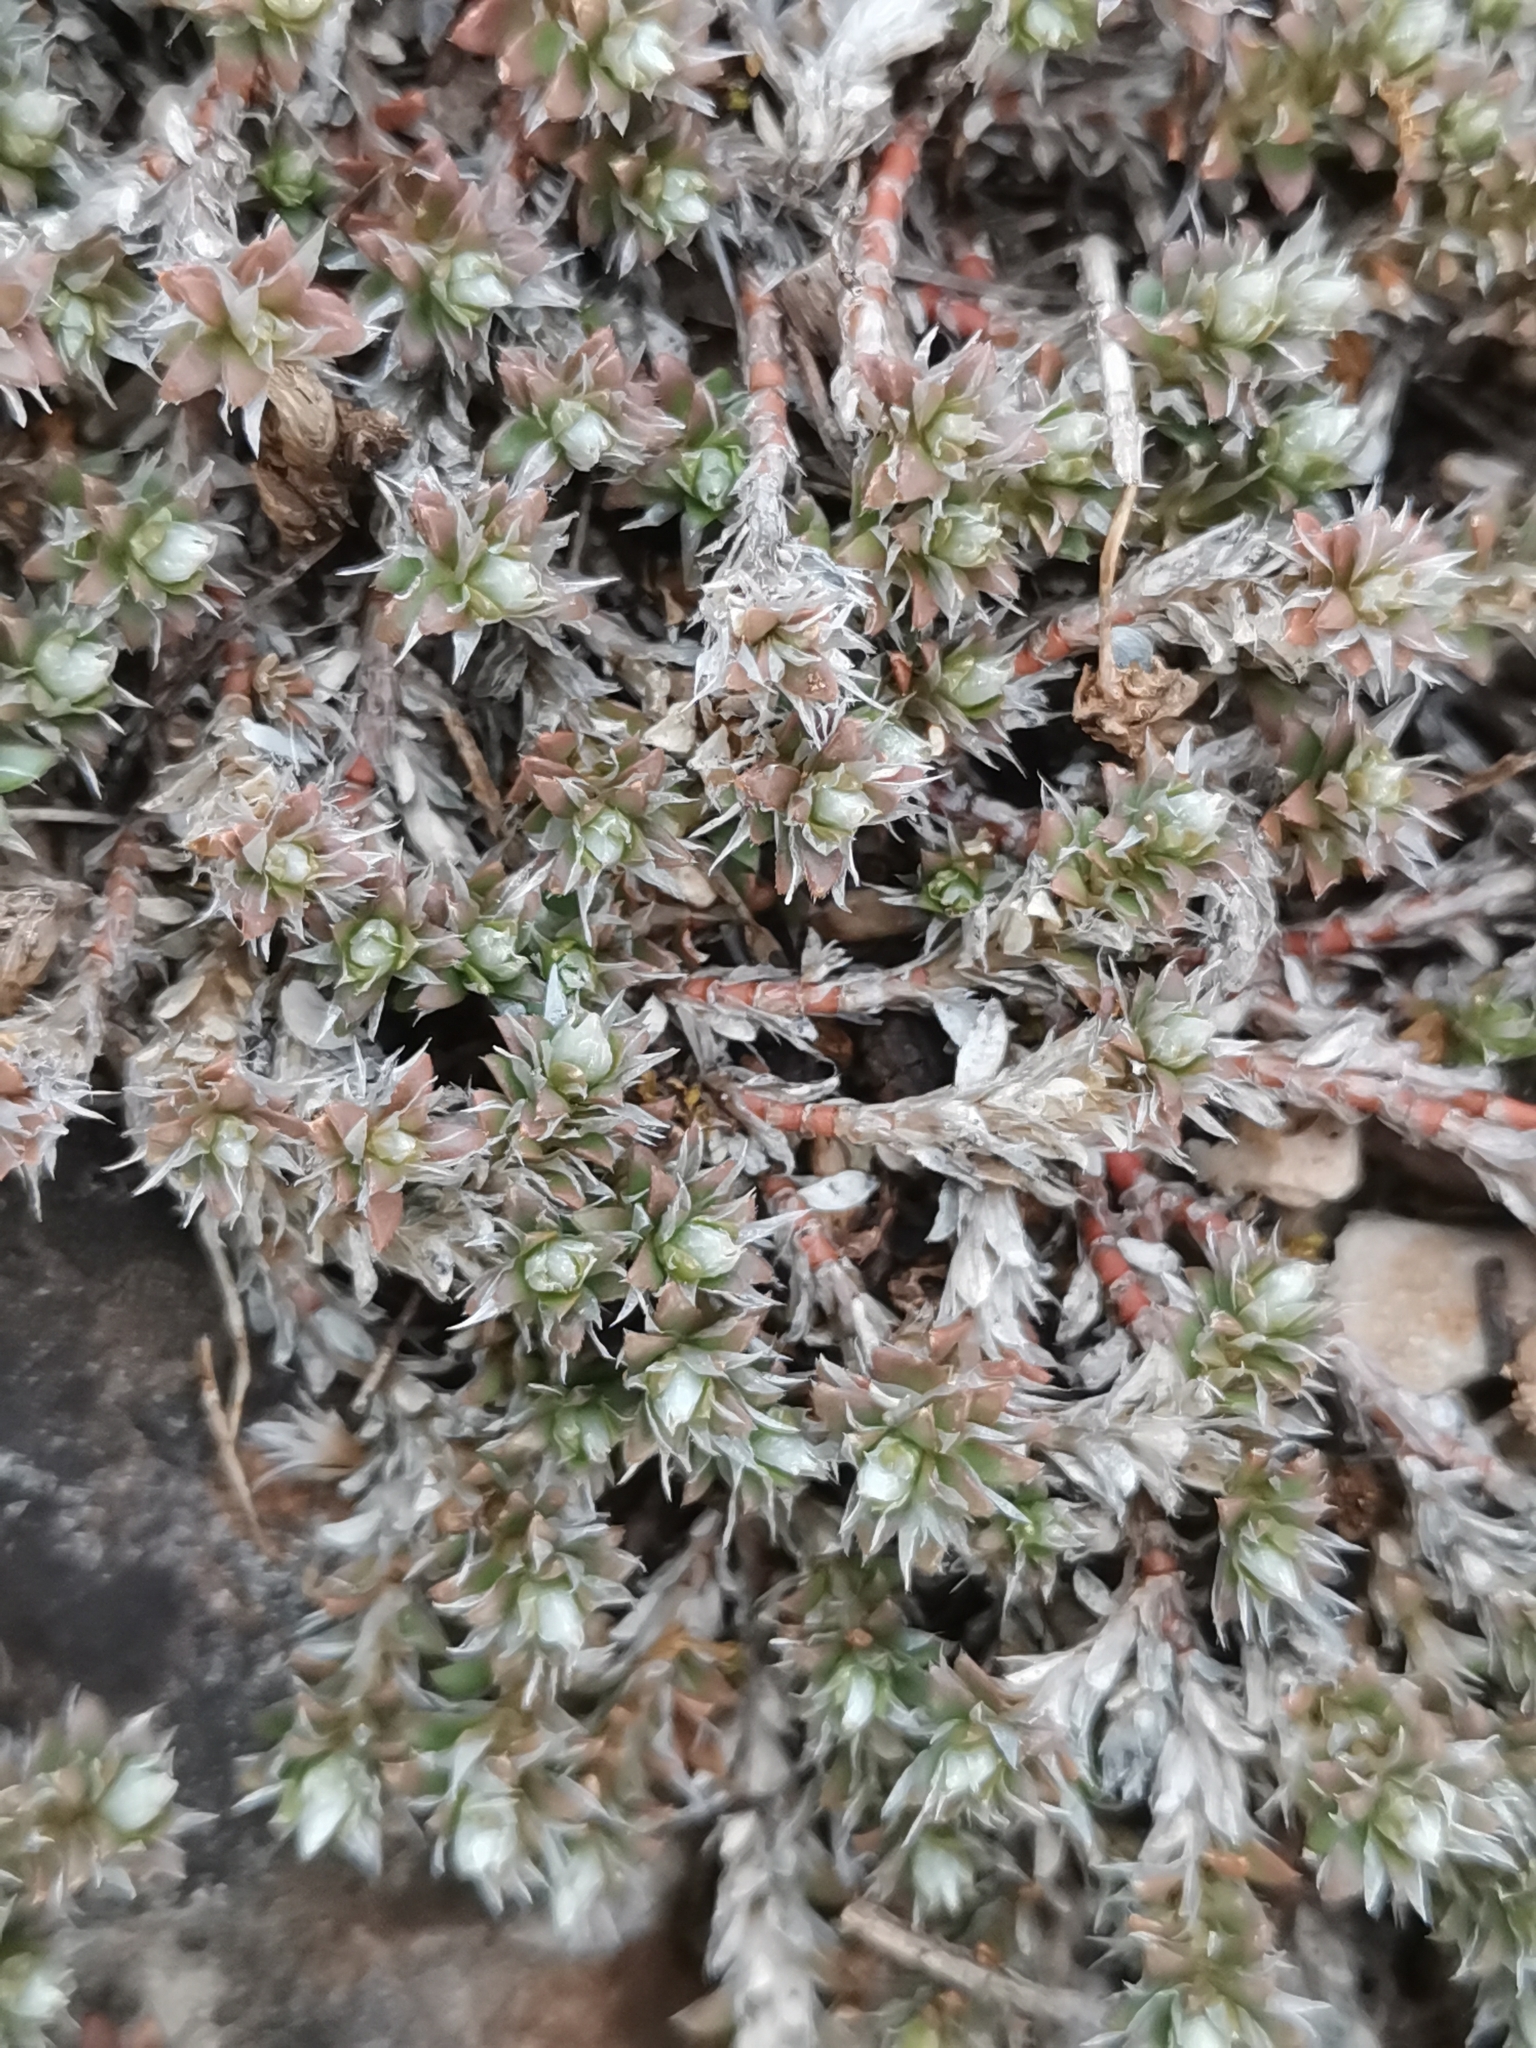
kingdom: Plantae
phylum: Tracheophyta
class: Magnoliopsida
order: Caryophyllales
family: Caryophyllaceae
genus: Paronychia
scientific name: Paronychia kapela
